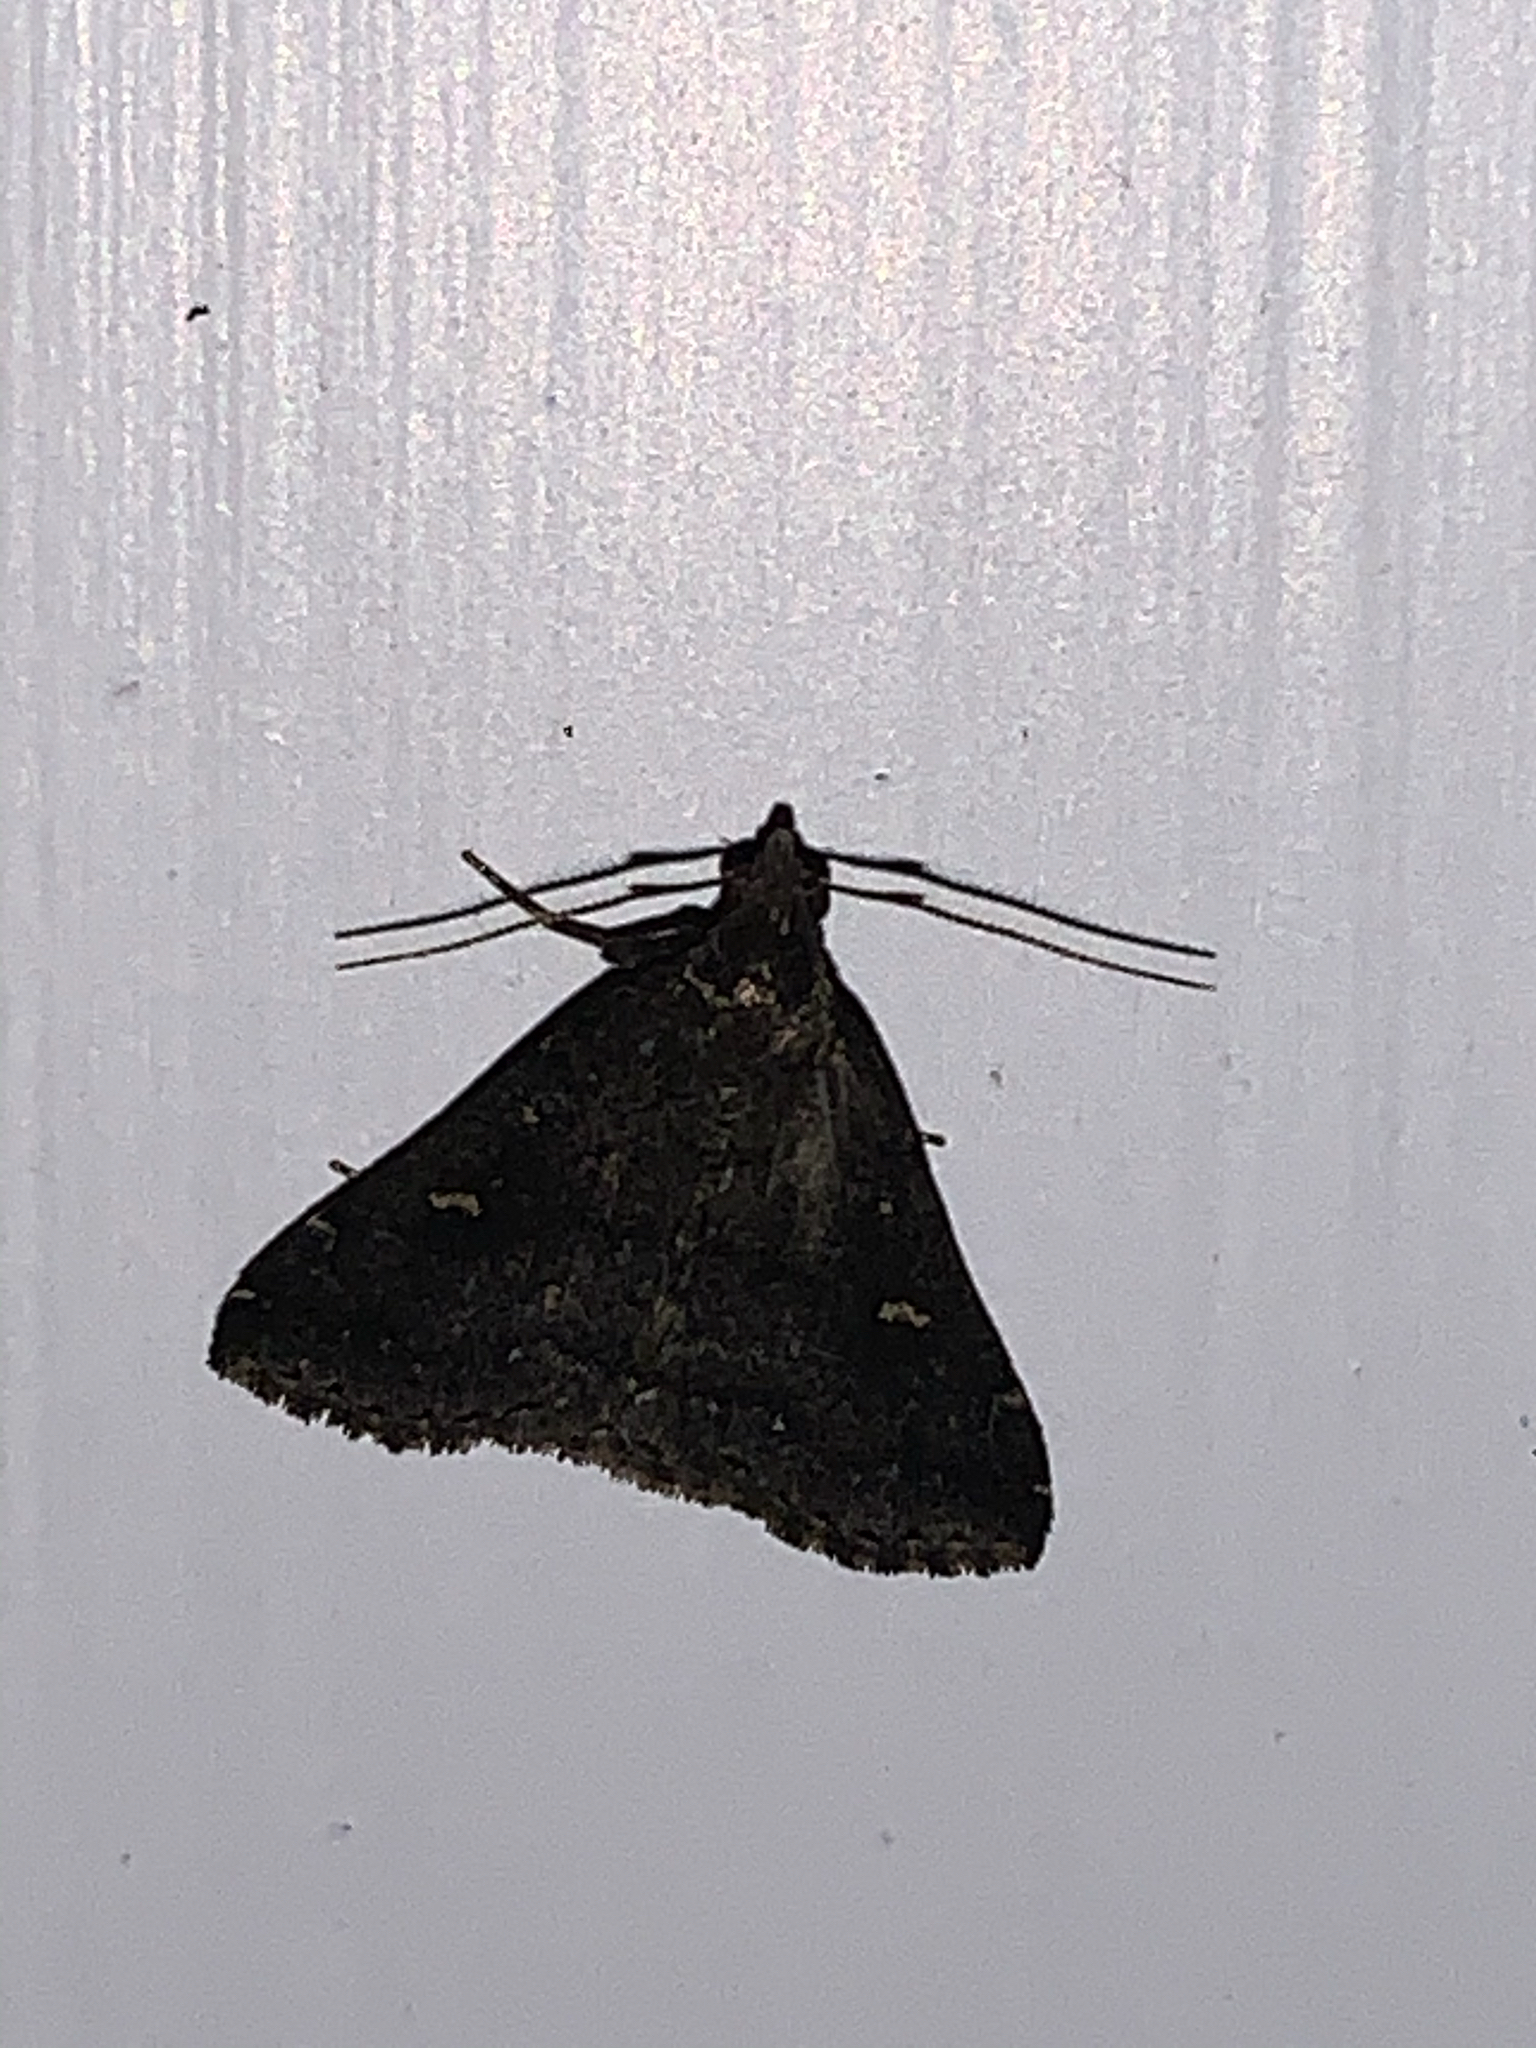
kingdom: Animalia
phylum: Arthropoda
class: Insecta
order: Lepidoptera
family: Erebidae
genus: Tetanolita
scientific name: Tetanolita mynesalis
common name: Smoky tetanolita moth
